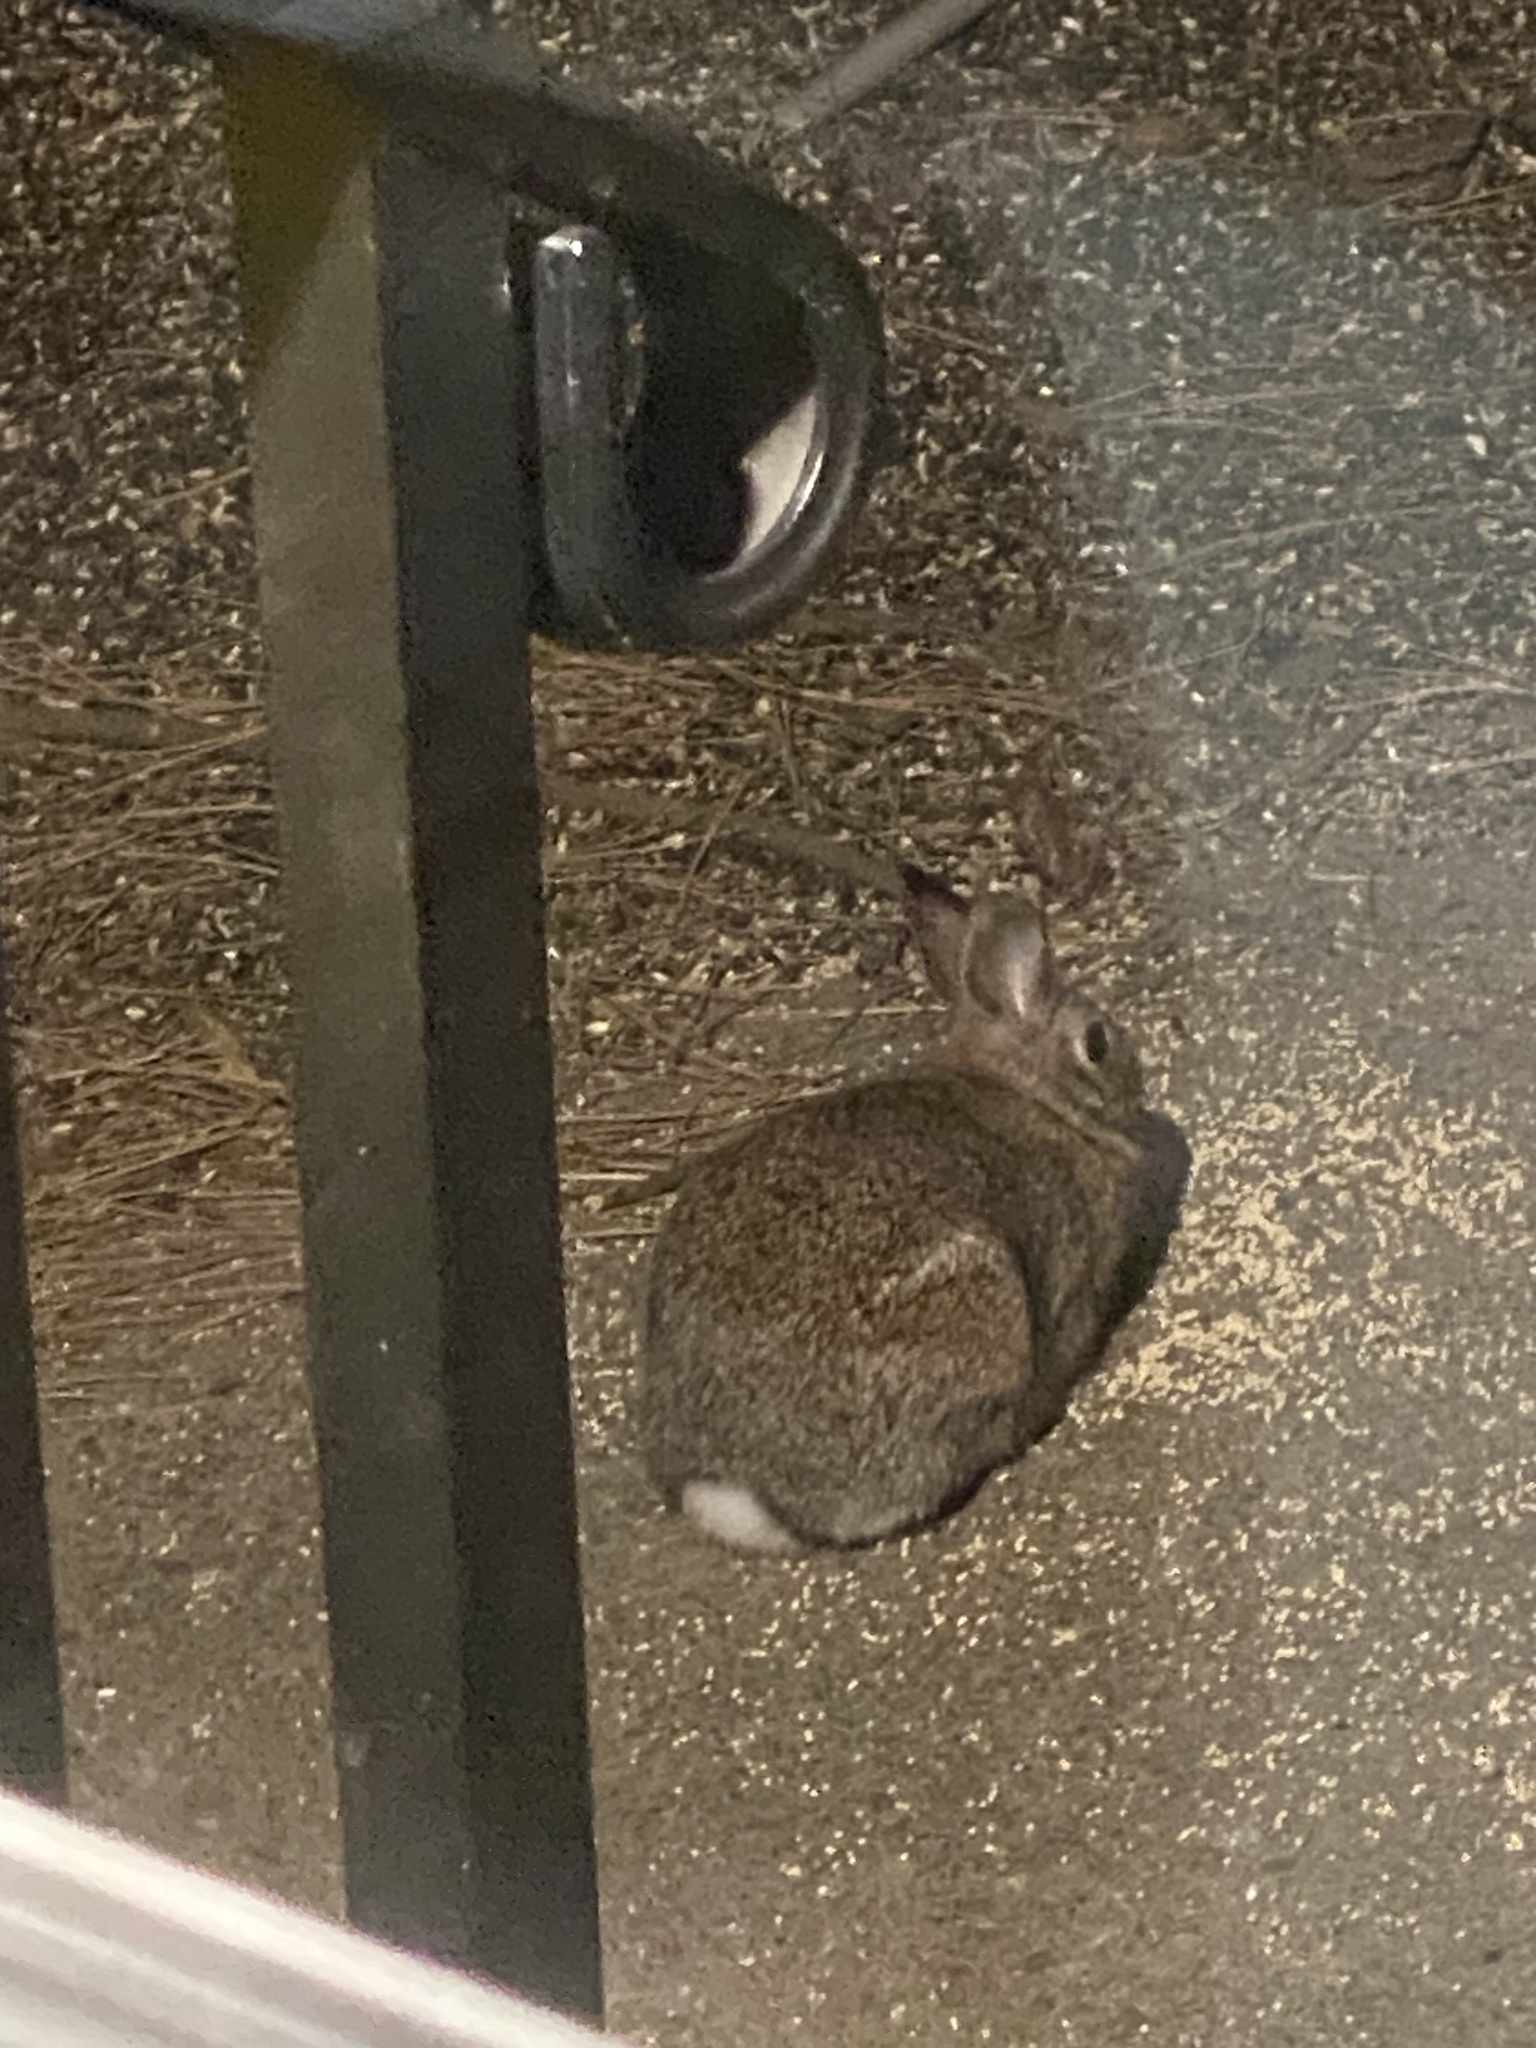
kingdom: Animalia
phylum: Chordata
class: Mammalia
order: Lagomorpha
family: Leporidae
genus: Sylvilagus
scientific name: Sylvilagus floridanus
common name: Eastern cottontail
